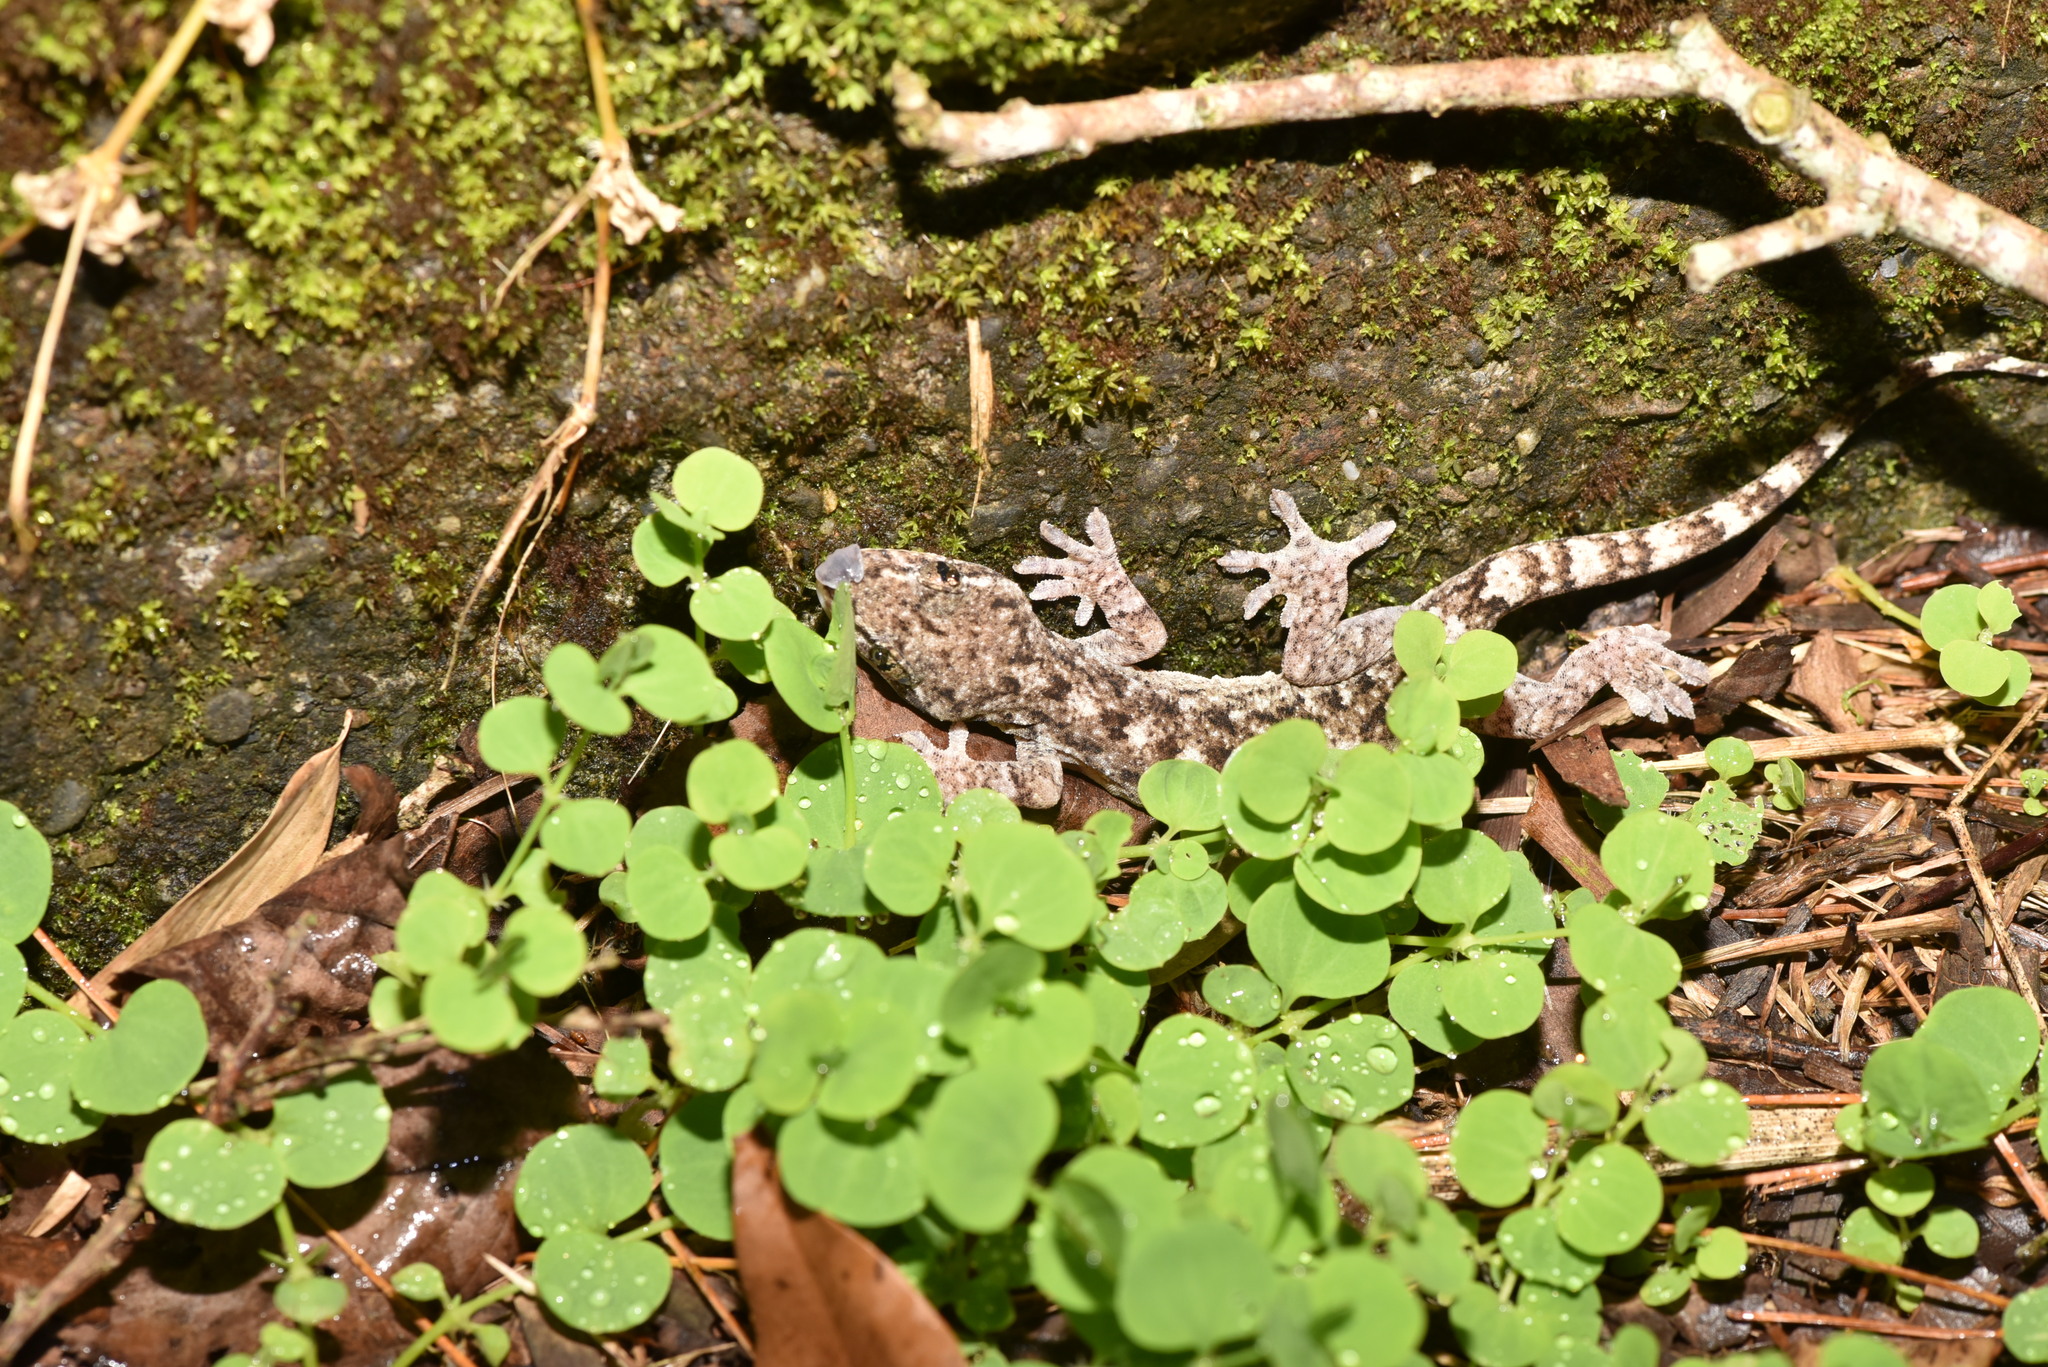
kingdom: Animalia
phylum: Chordata
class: Squamata
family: Gekkonidae
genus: Gekko
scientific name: Gekko hokouensis
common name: Kwangsi gecko
